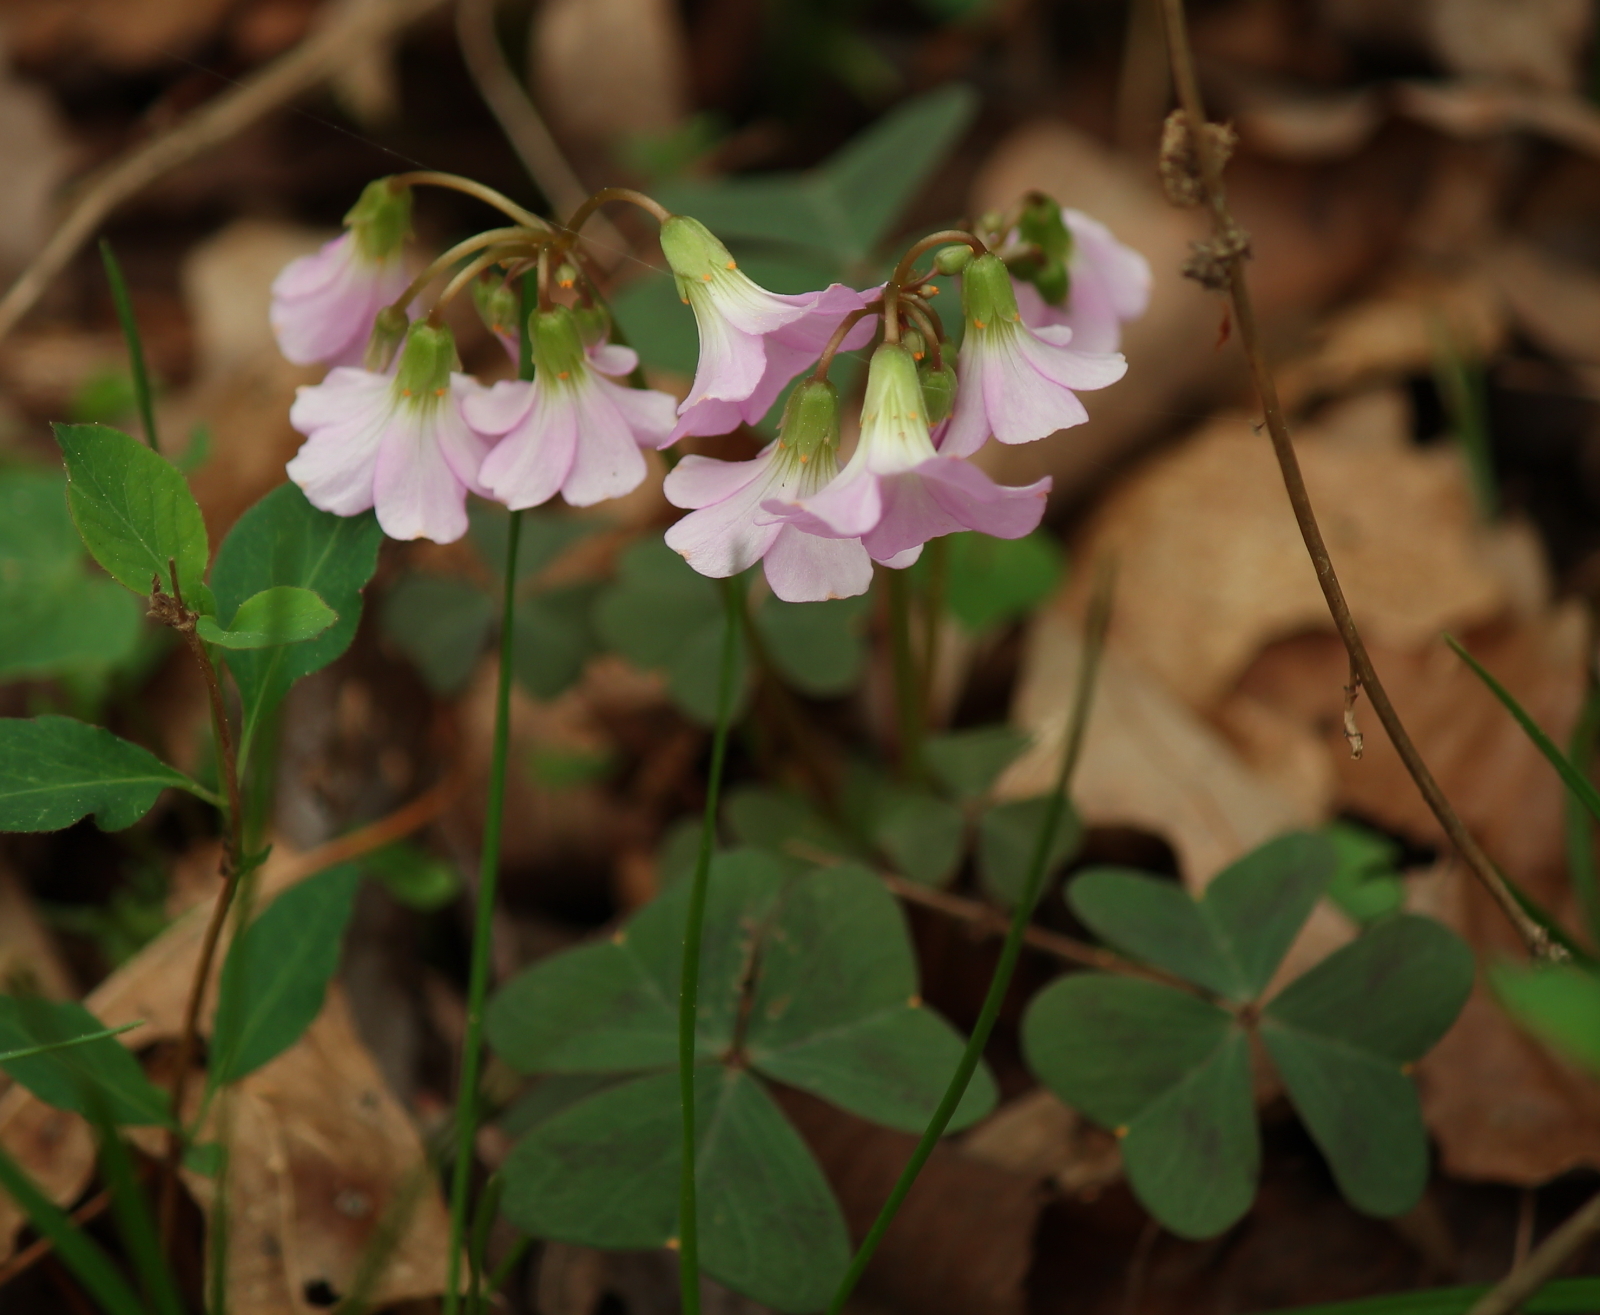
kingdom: Plantae
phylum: Tracheophyta
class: Magnoliopsida
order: Oxalidales
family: Oxalidaceae
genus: Oxalis
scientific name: Oxalis violacea
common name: Violet wood-sorrel
